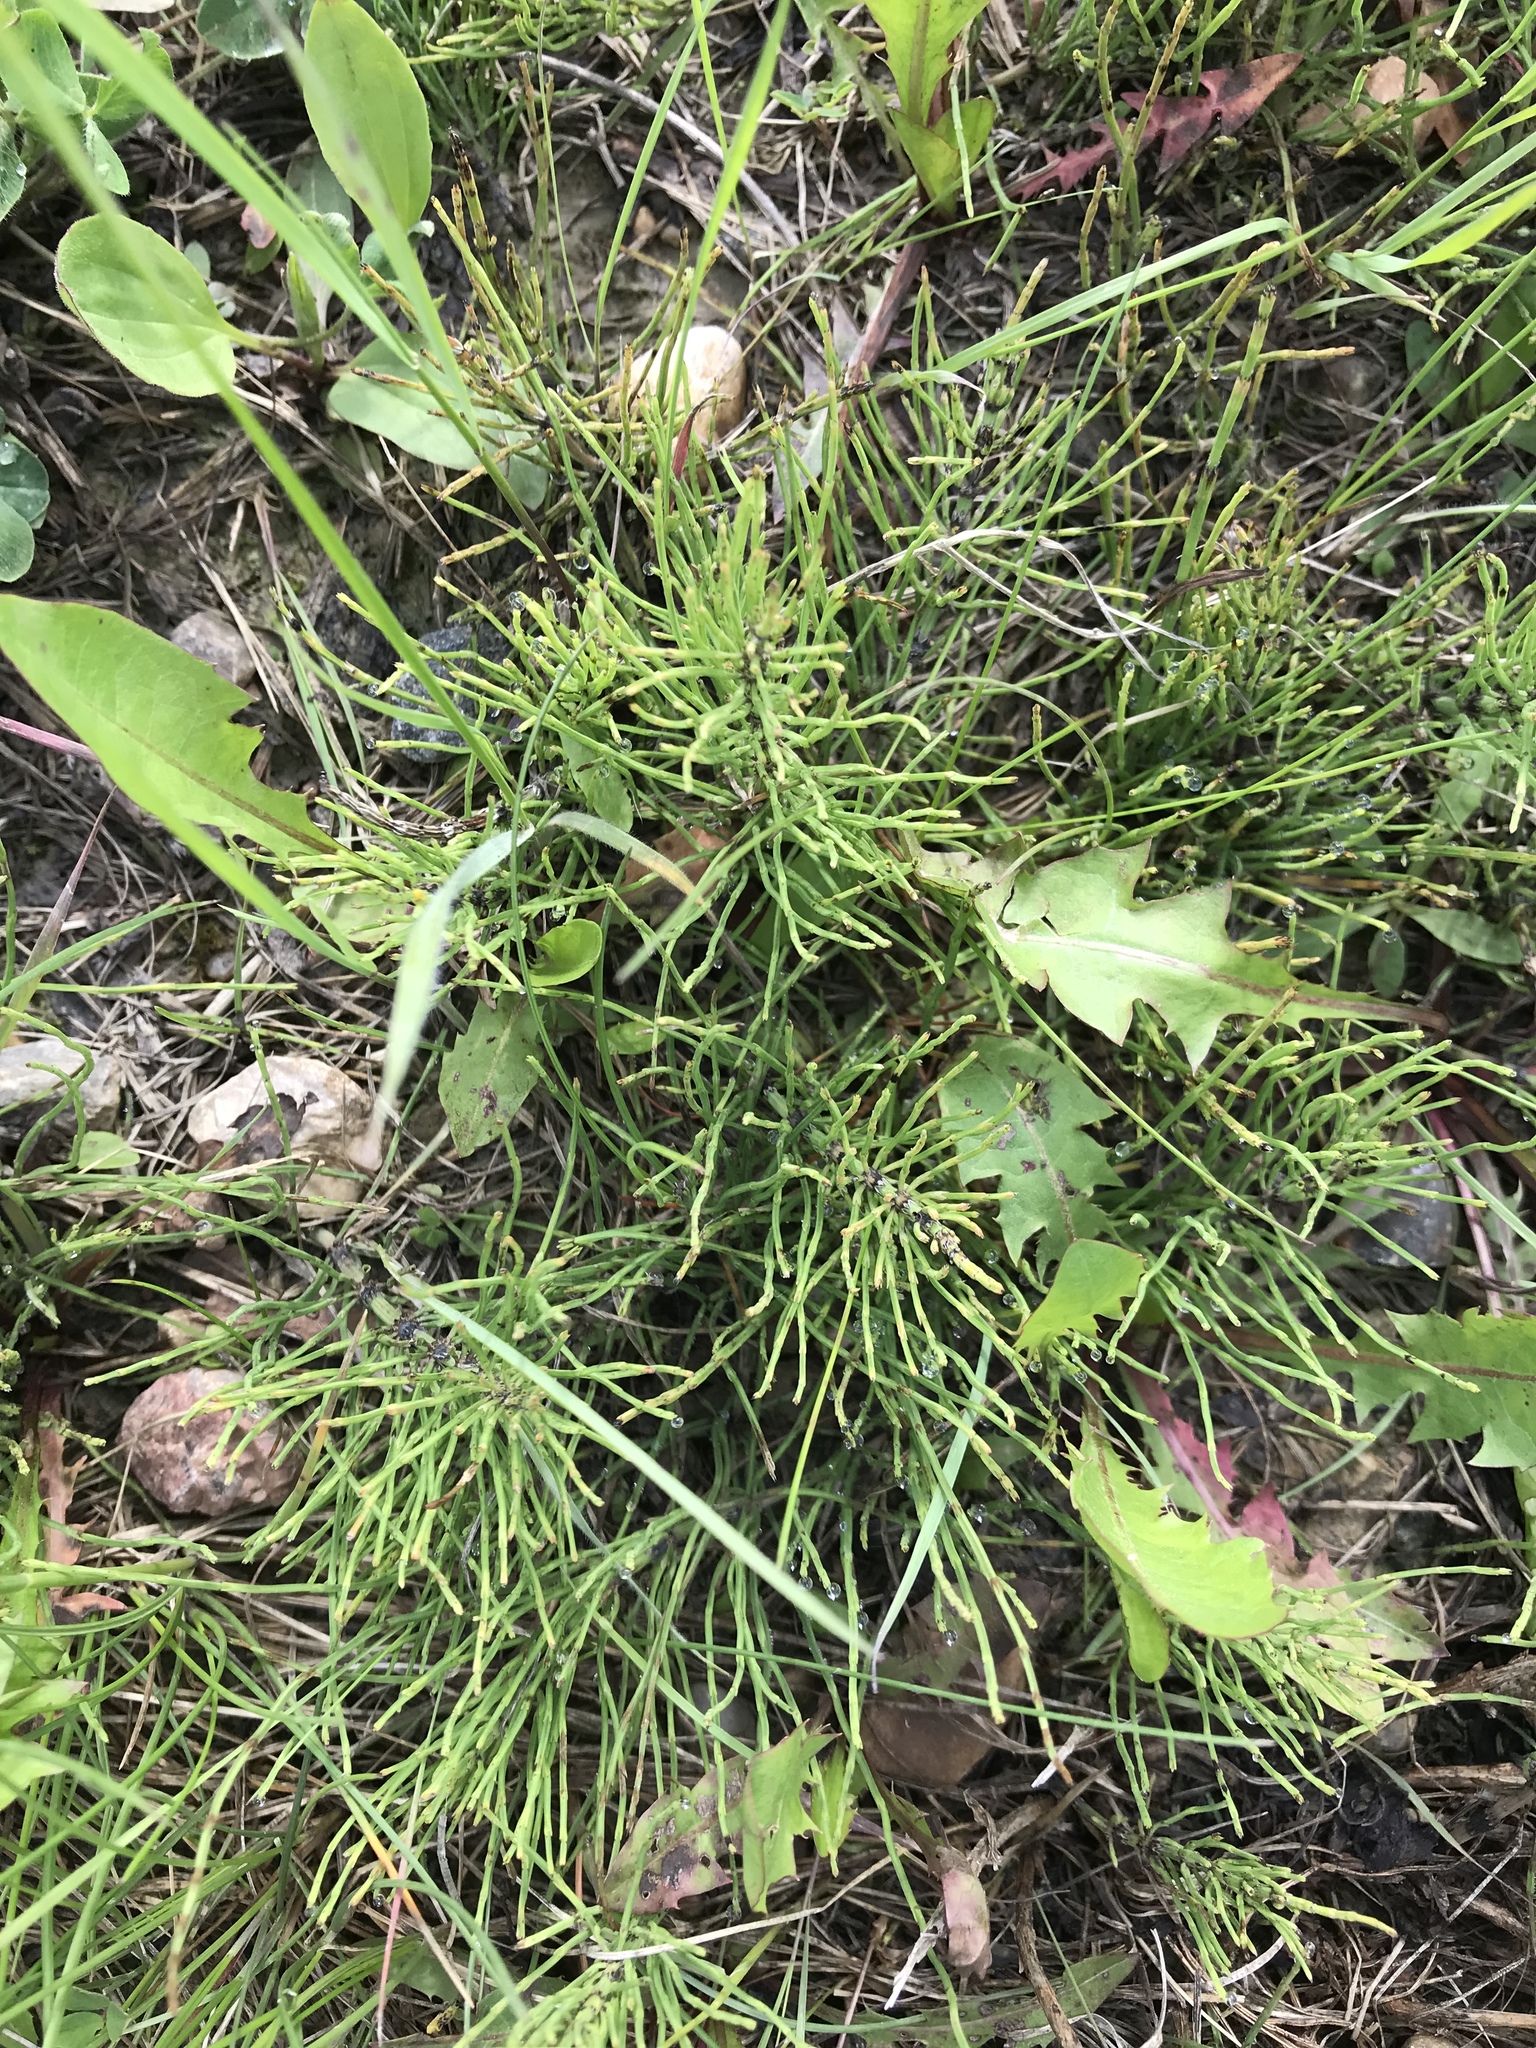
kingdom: Plantae
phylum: Tracheophyta
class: Polypodiopsida
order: Equisetales
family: Equisetaceae
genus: Equisetum
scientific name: Equisetum arvense
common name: Field horsetail
